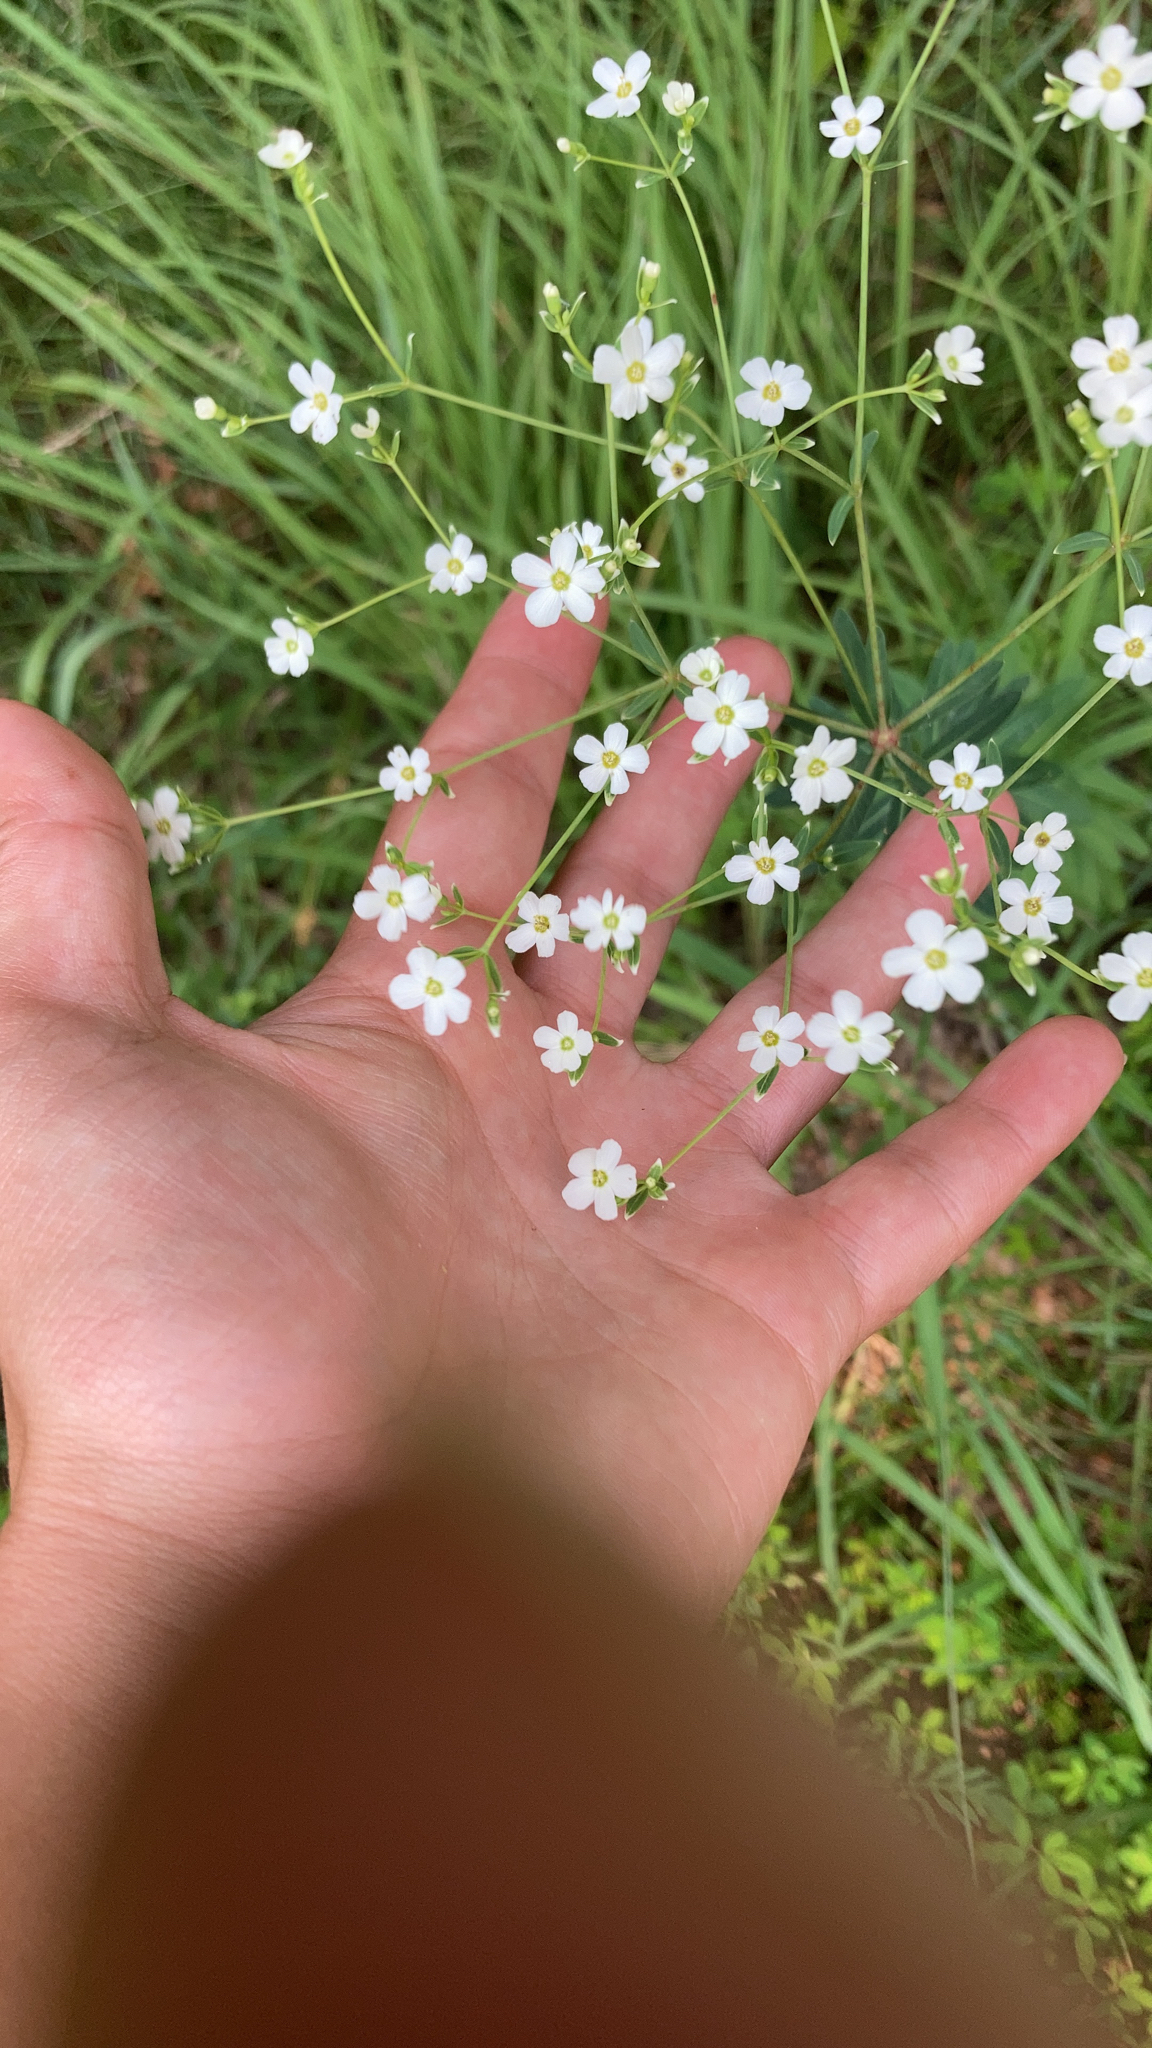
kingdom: Plantae
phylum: Tracheophyta
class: Magnoliopsida
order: Malpighiales
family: Euphorbiaceae
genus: Euphorbia
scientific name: Euphorbia corollata
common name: Flowering spurge
